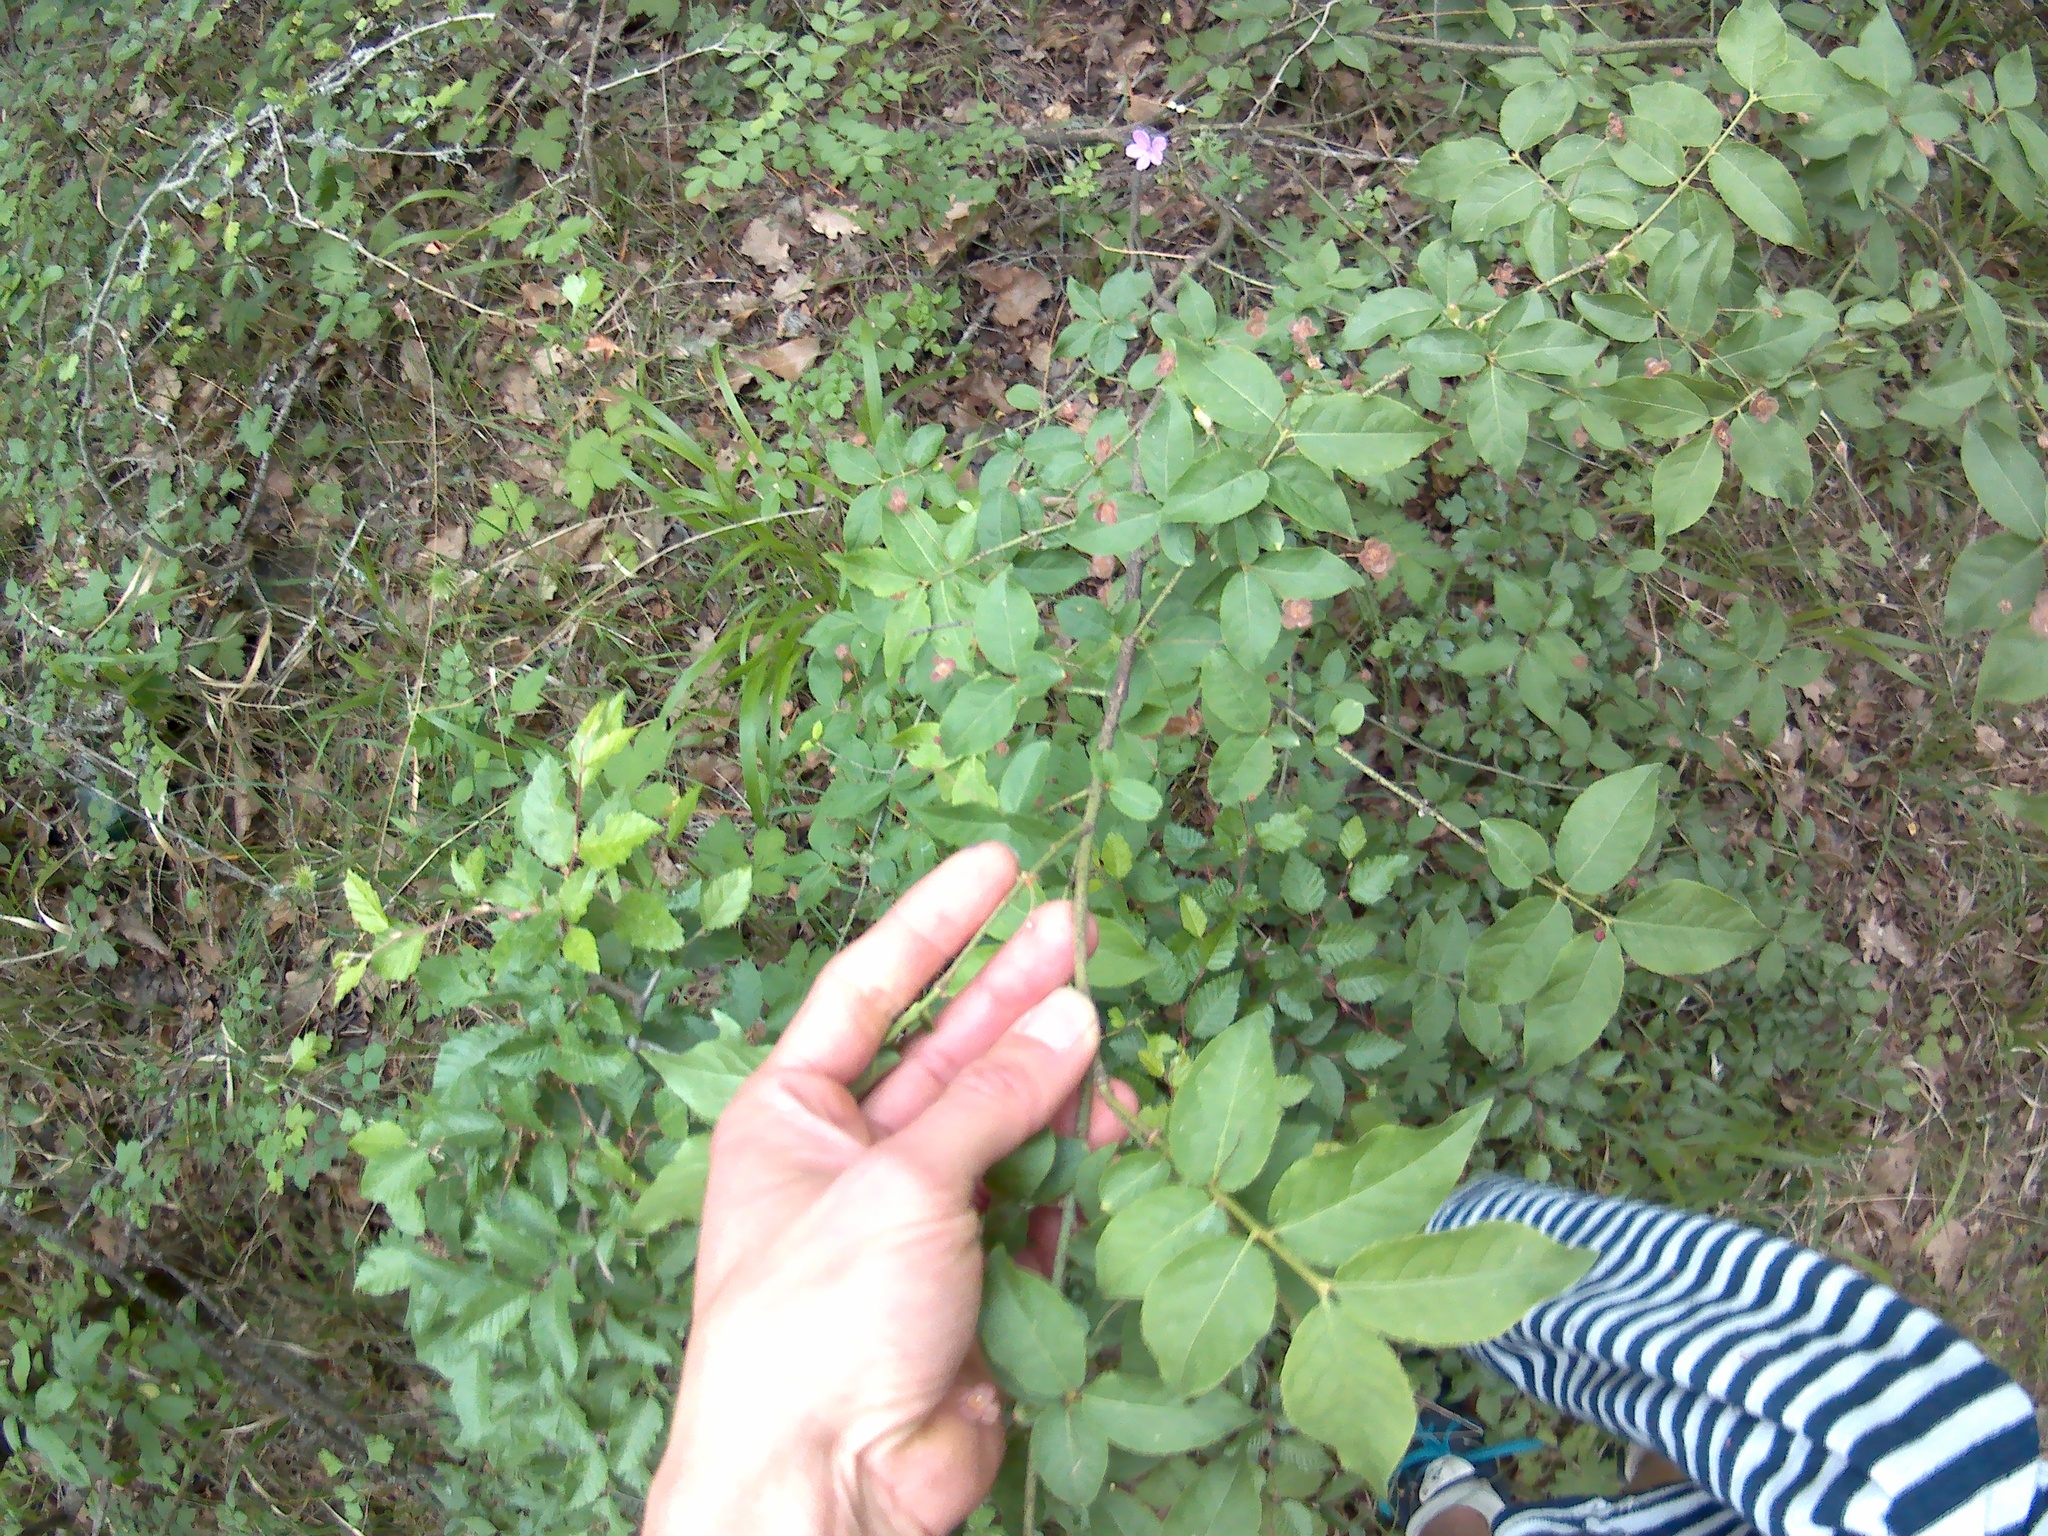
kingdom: Plantae
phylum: Tracheophyta
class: Magnoliopsida
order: Celastrales
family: Celastraceae
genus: Euonymus
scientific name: Euonymus verrucosus
